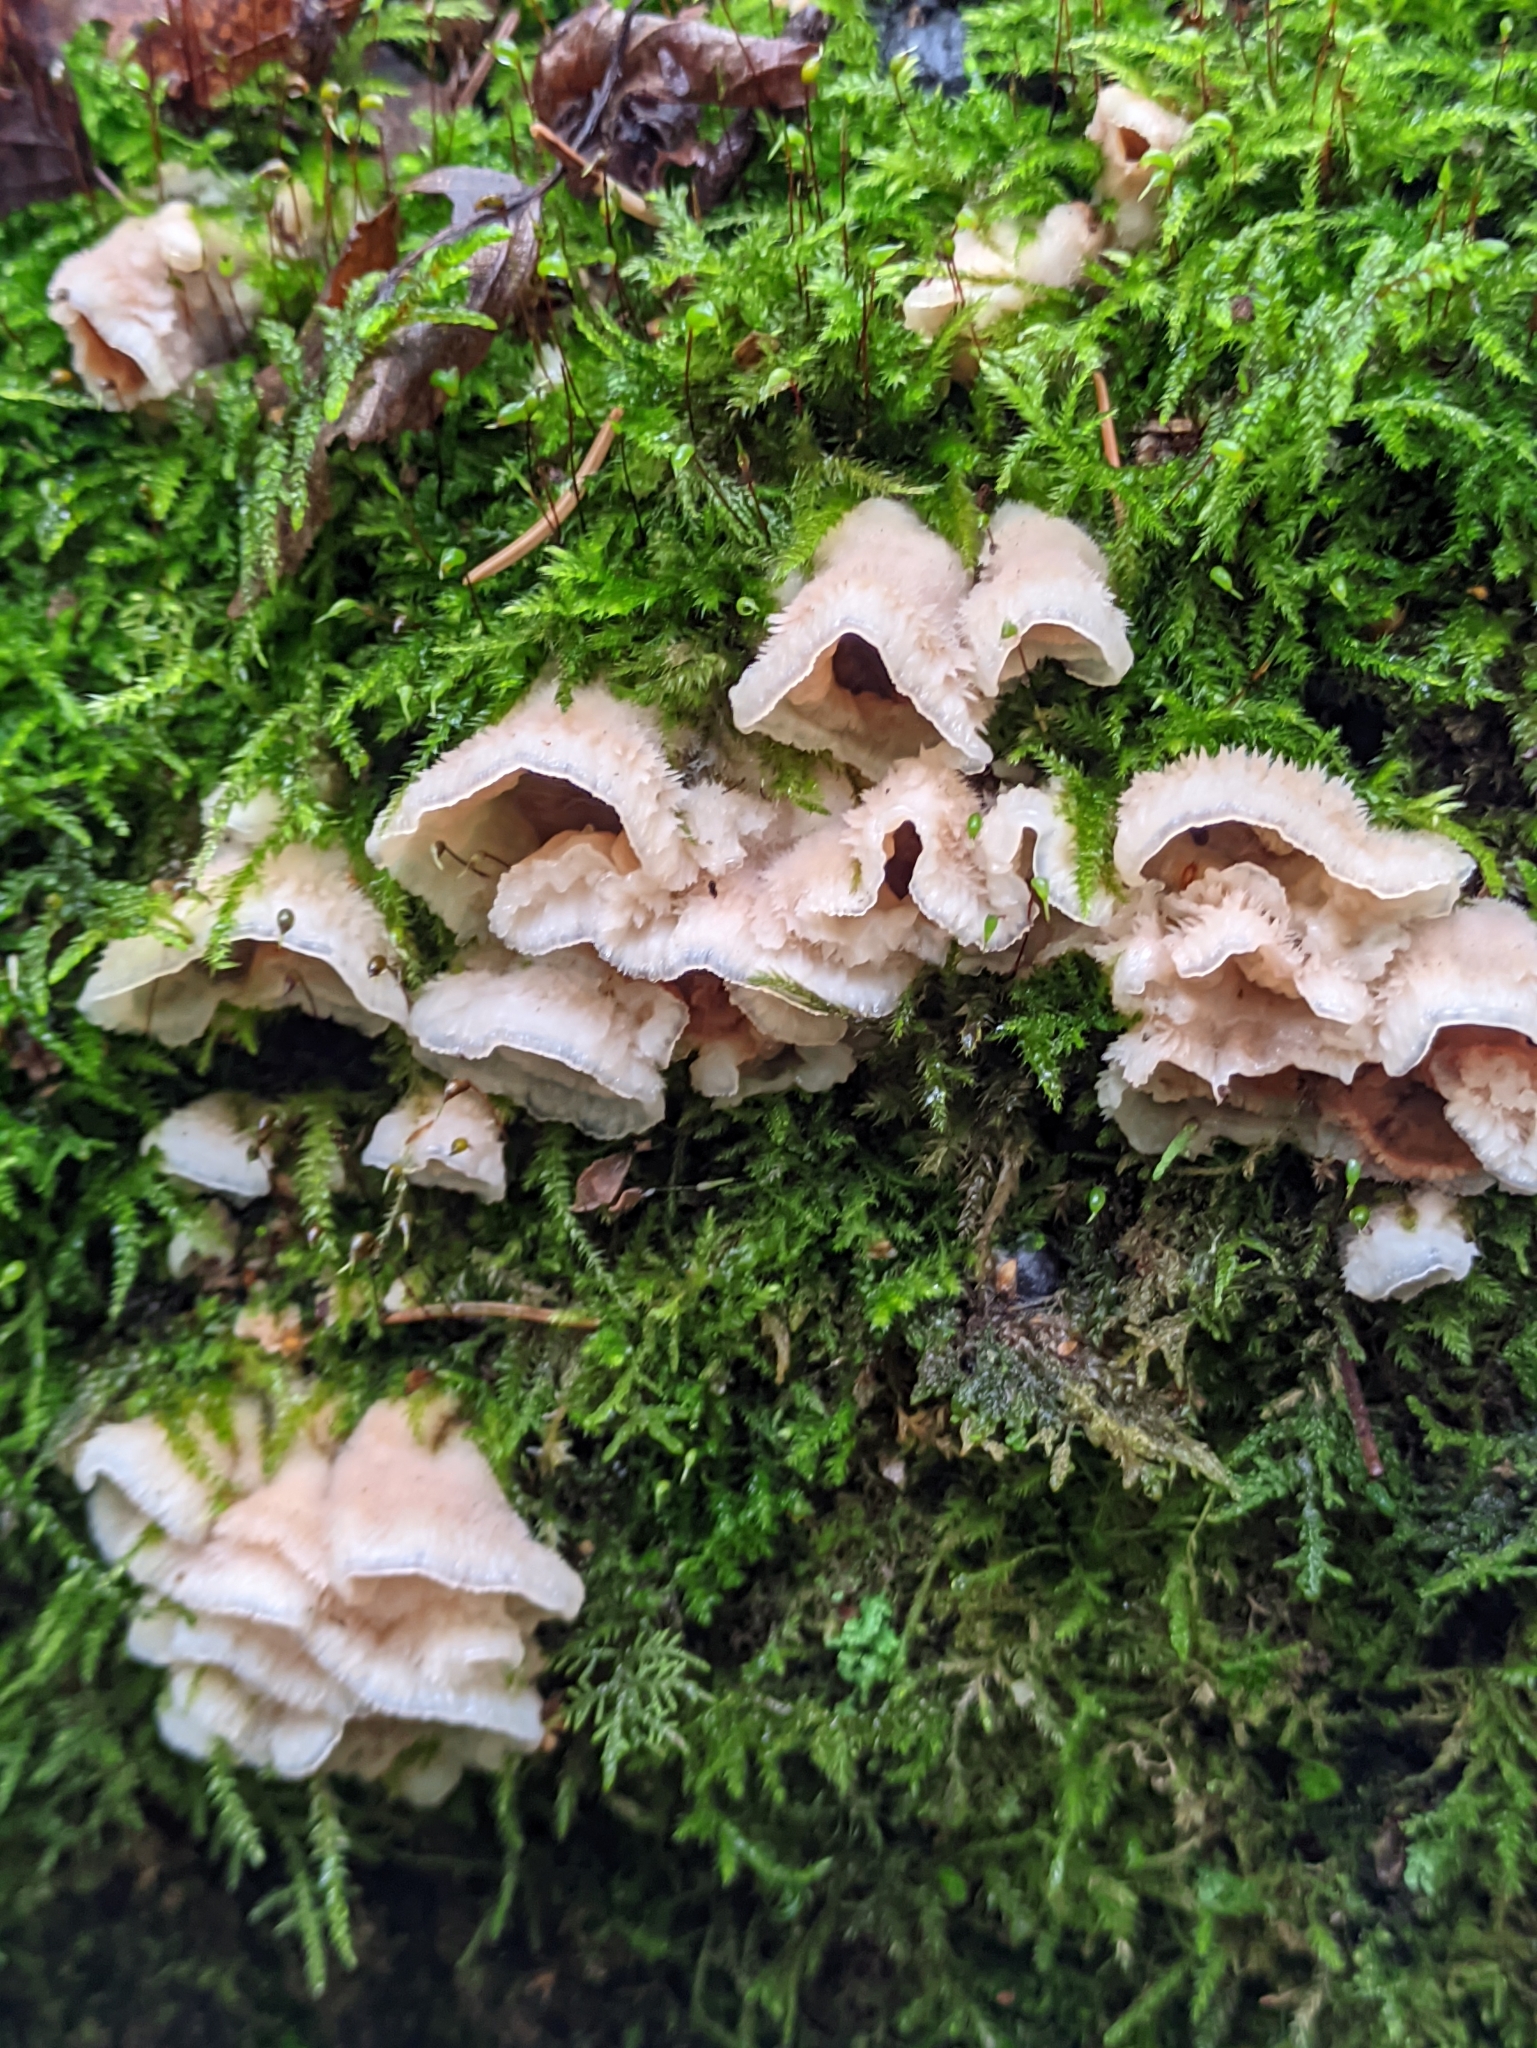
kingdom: Fungi
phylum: Basidiomycota
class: Agaricomycetes
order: Polyporales
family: Meruliaceae
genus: Phlebia
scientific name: Phlebia tremellosa
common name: Jelly rot
